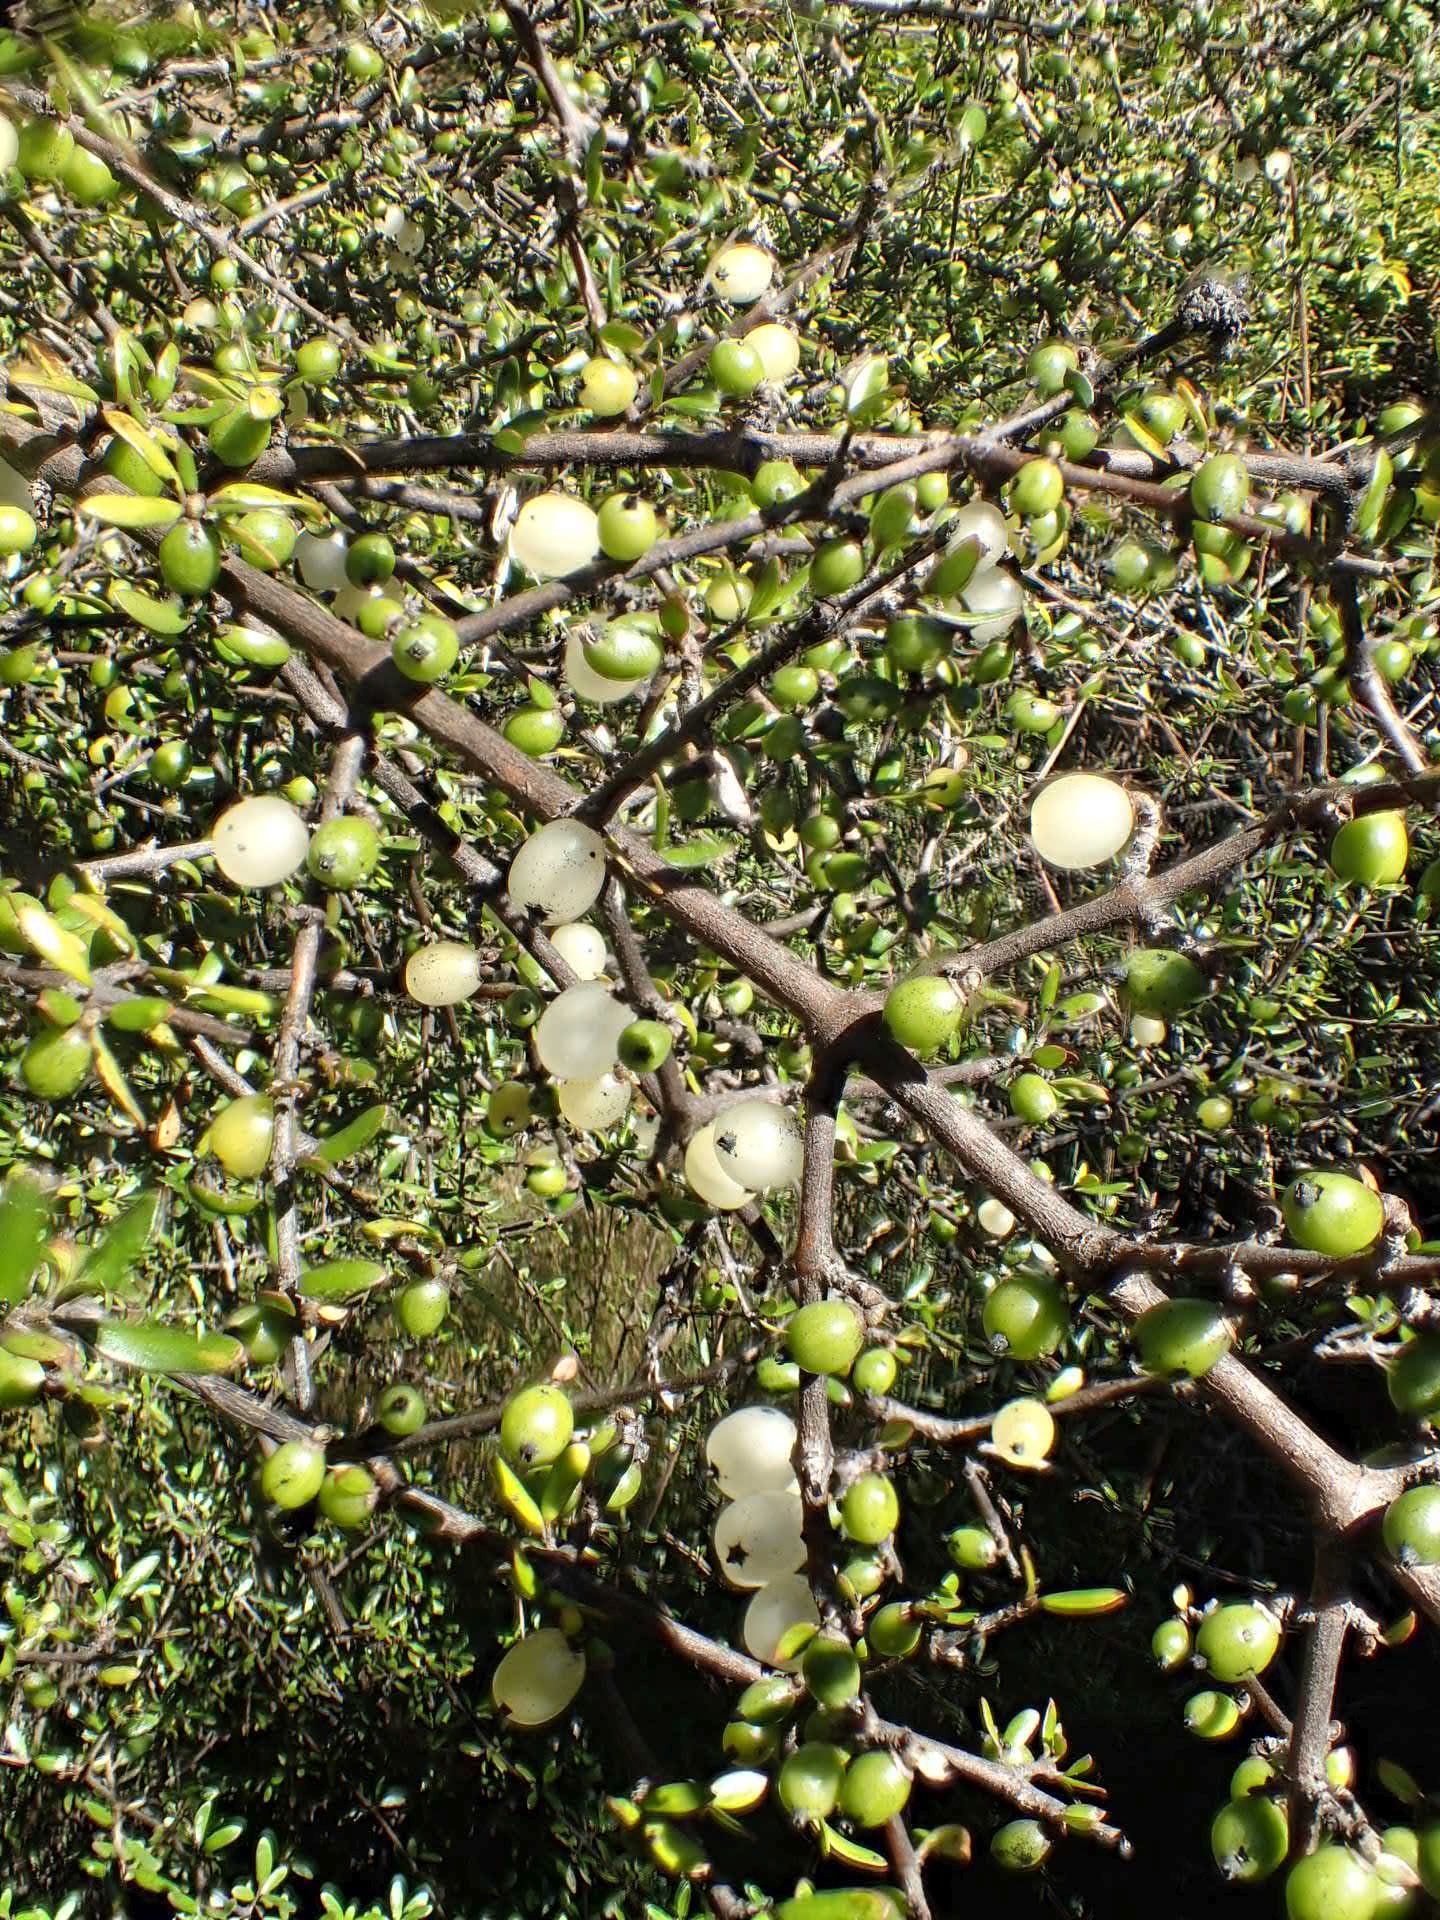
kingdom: Plantae
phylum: Tracheophyta
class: Magnoliopsida
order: Gentianales
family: Rubiaceae
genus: Coprosma
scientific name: Coprosma propinqua
